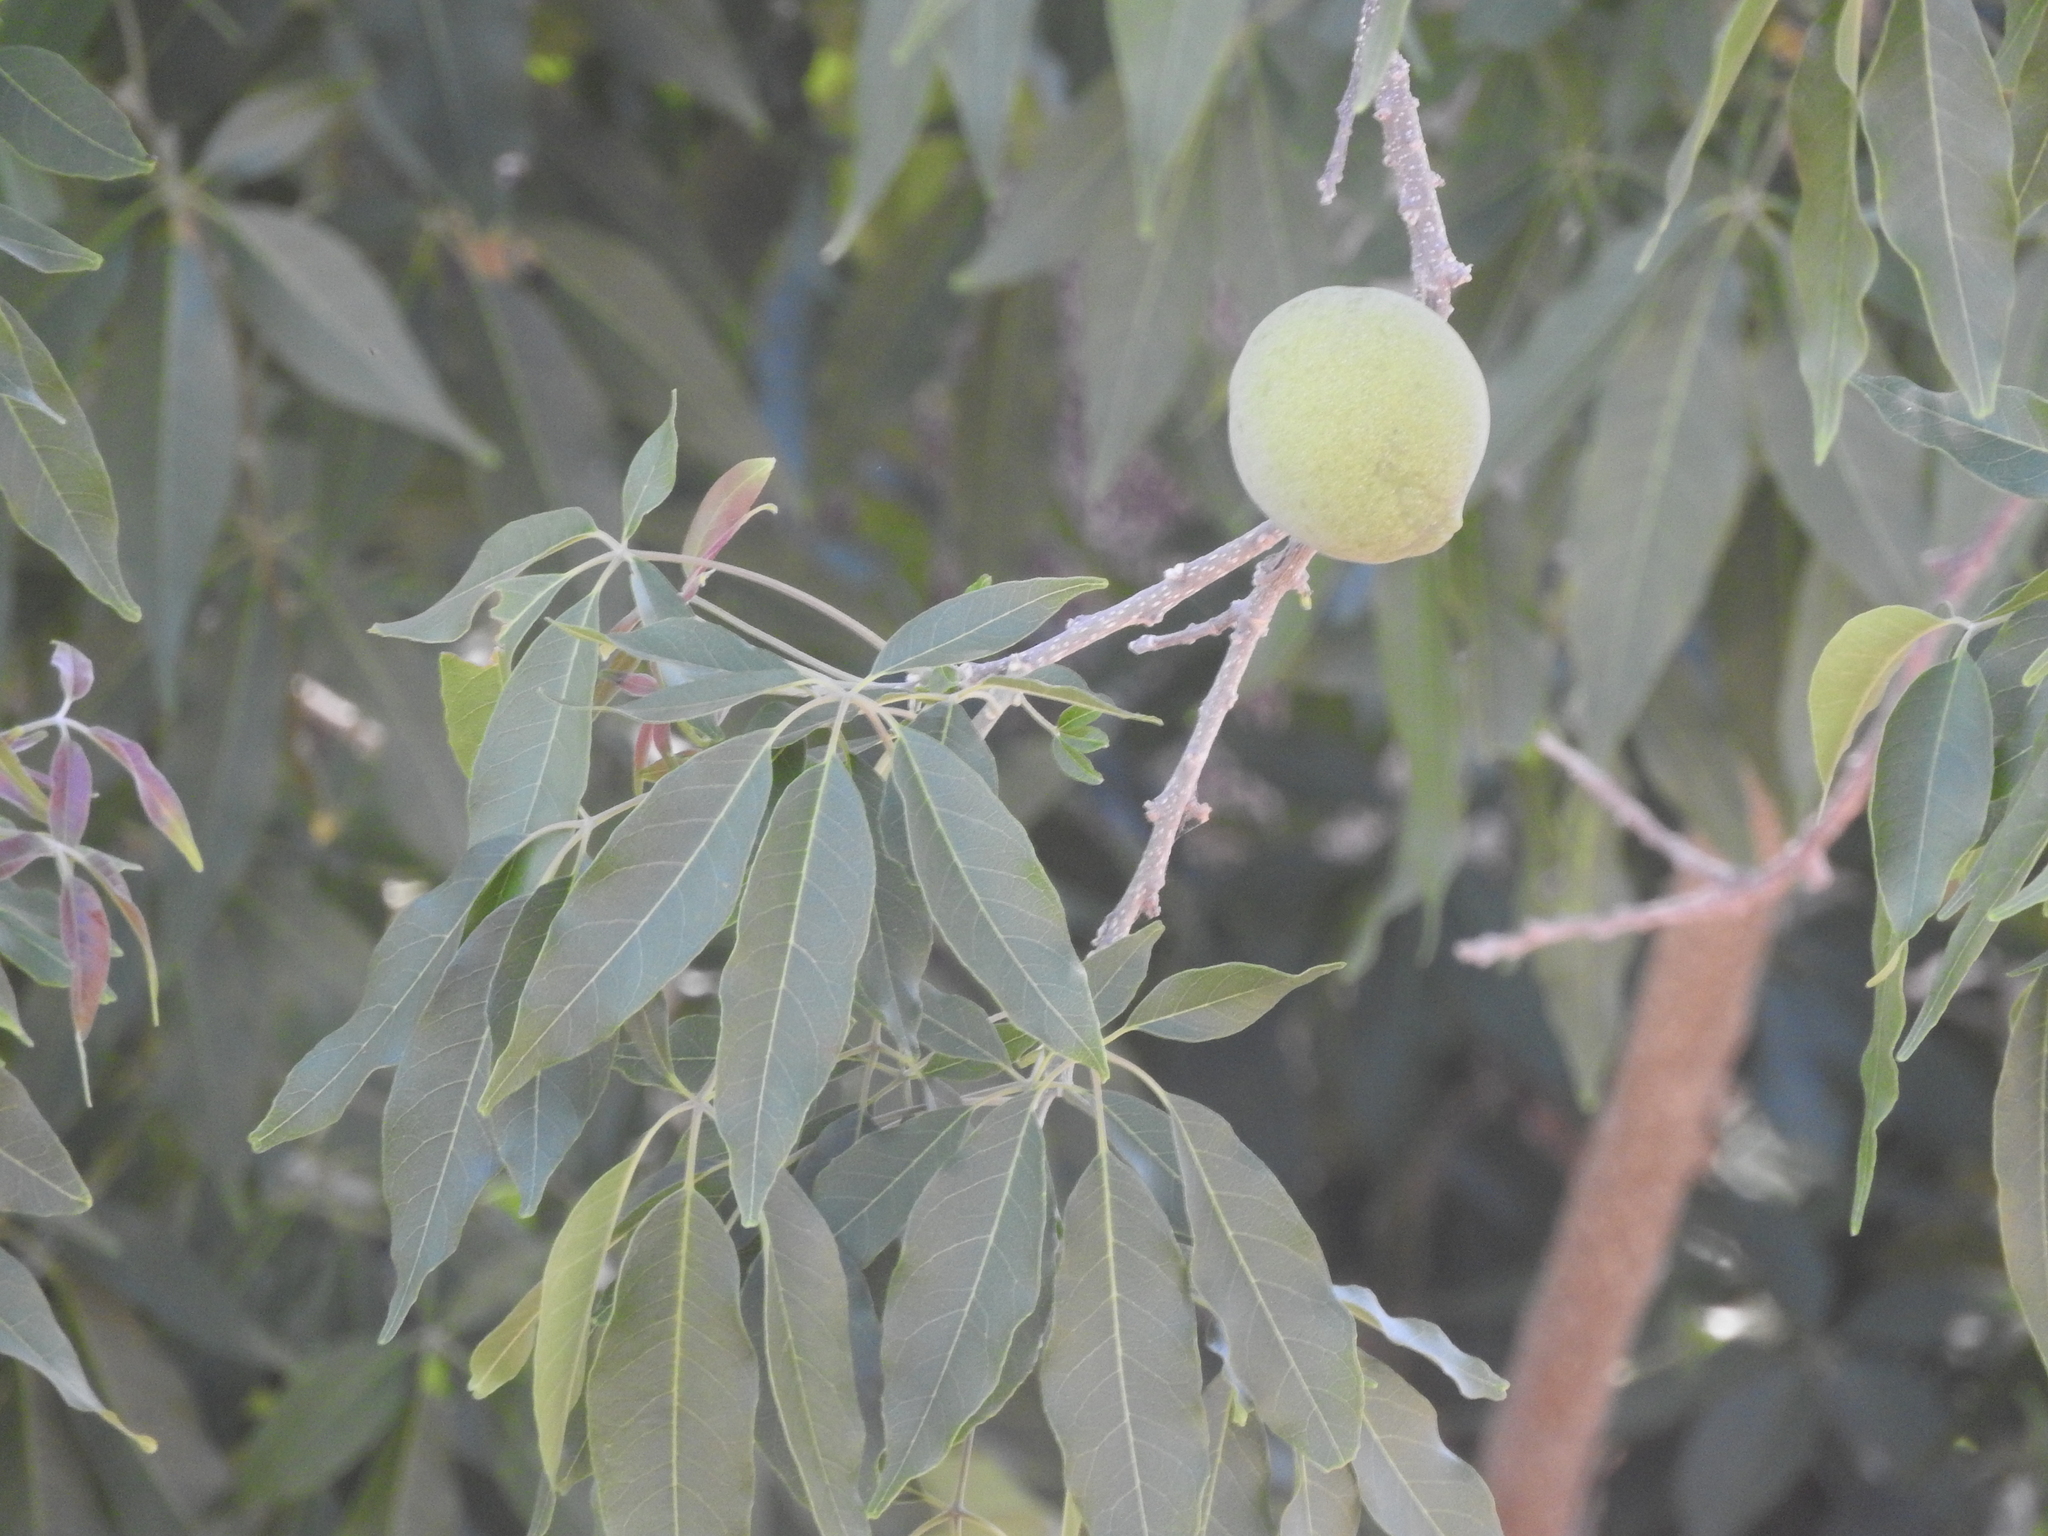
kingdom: Plantae
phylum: Tracheophyta
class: Magnoliopsida
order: Sapindales
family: Rutaceae
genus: Casimiroa
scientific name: Casimiroa edulis
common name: Mexican-apple
